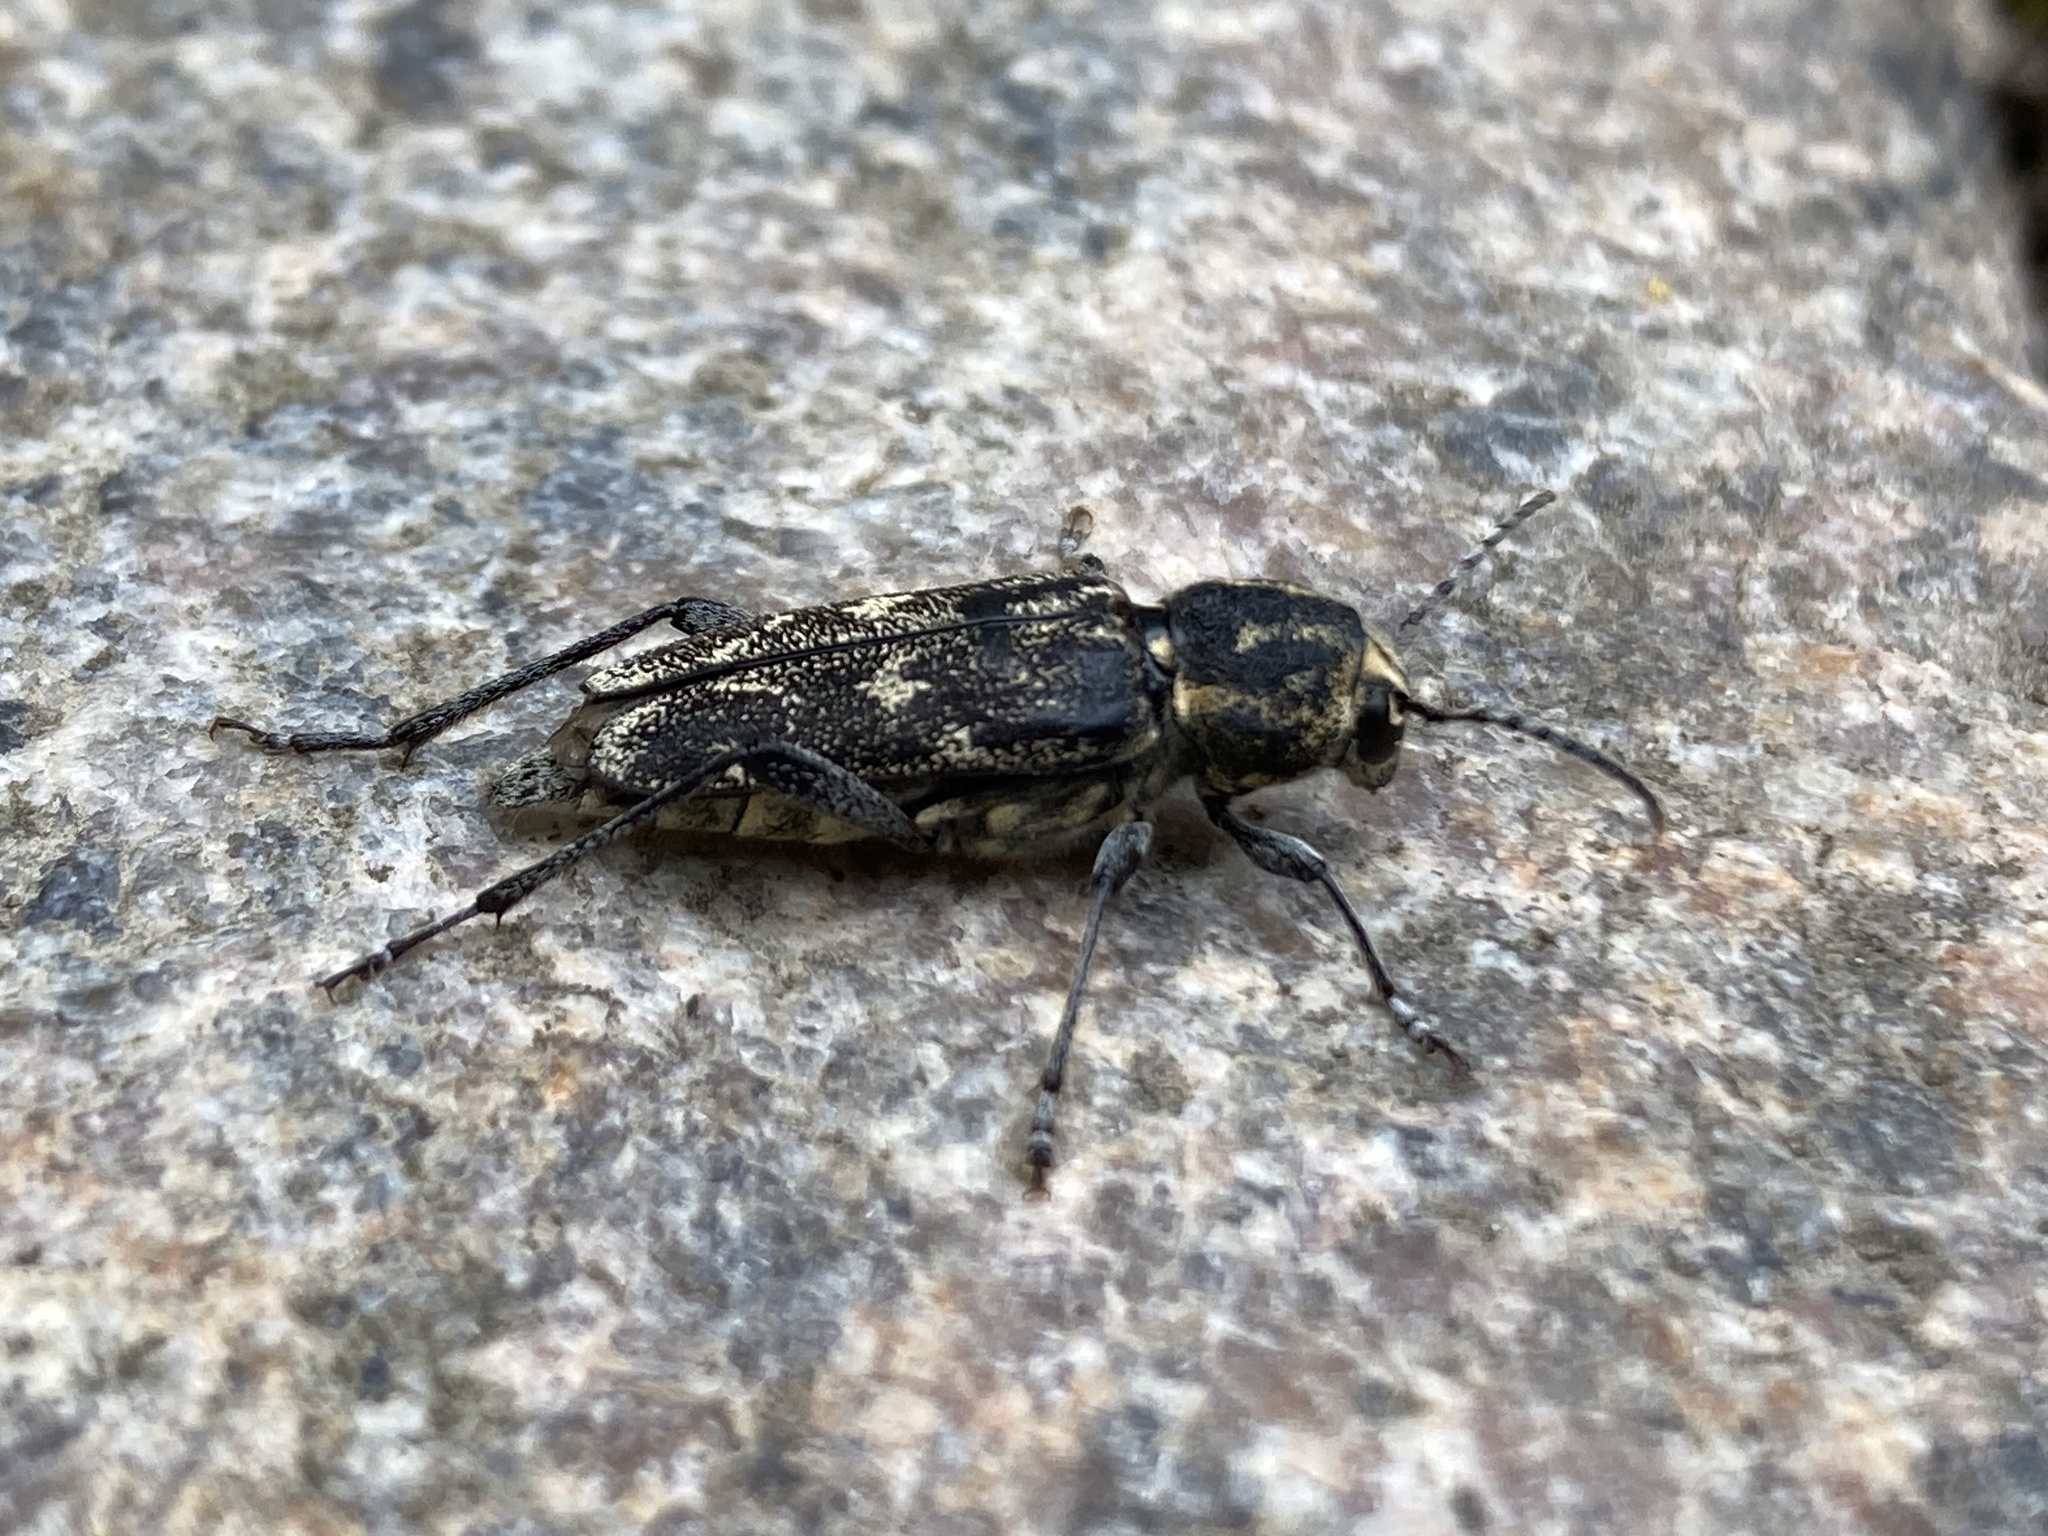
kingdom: Animalia
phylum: Arthropoda
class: Insecta
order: Coleoptera
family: Cerambycidae
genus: Xylotrechus
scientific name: Xylotrechus rusticus
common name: Grey tiger long-horned beetle
